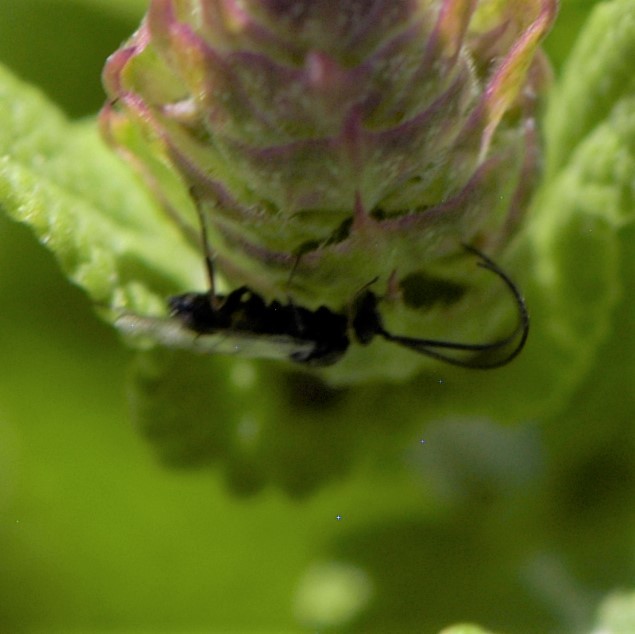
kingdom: Animalia
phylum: Arthropoda
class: Insecta
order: Hymenoptera
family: Braconidae
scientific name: Braconidae
